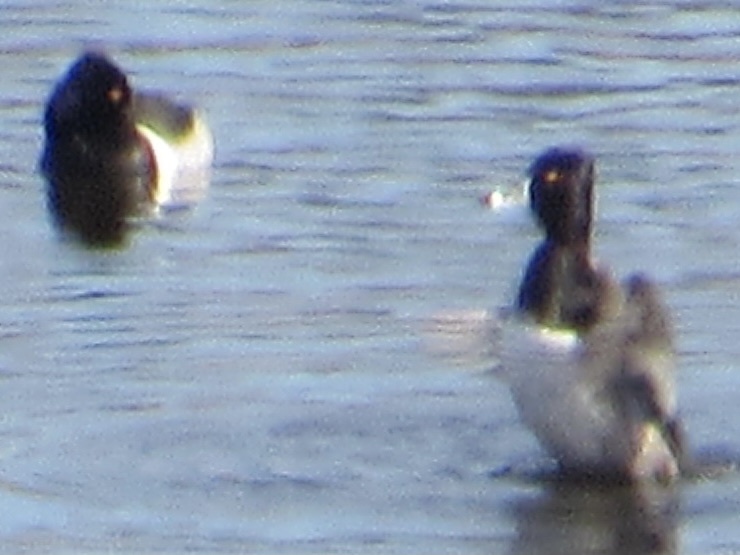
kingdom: Animalia
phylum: Chordata
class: Aves
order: Anseriformes
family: Anatidae
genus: Aythya
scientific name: Aythya collaris
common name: Ring-necked duck
